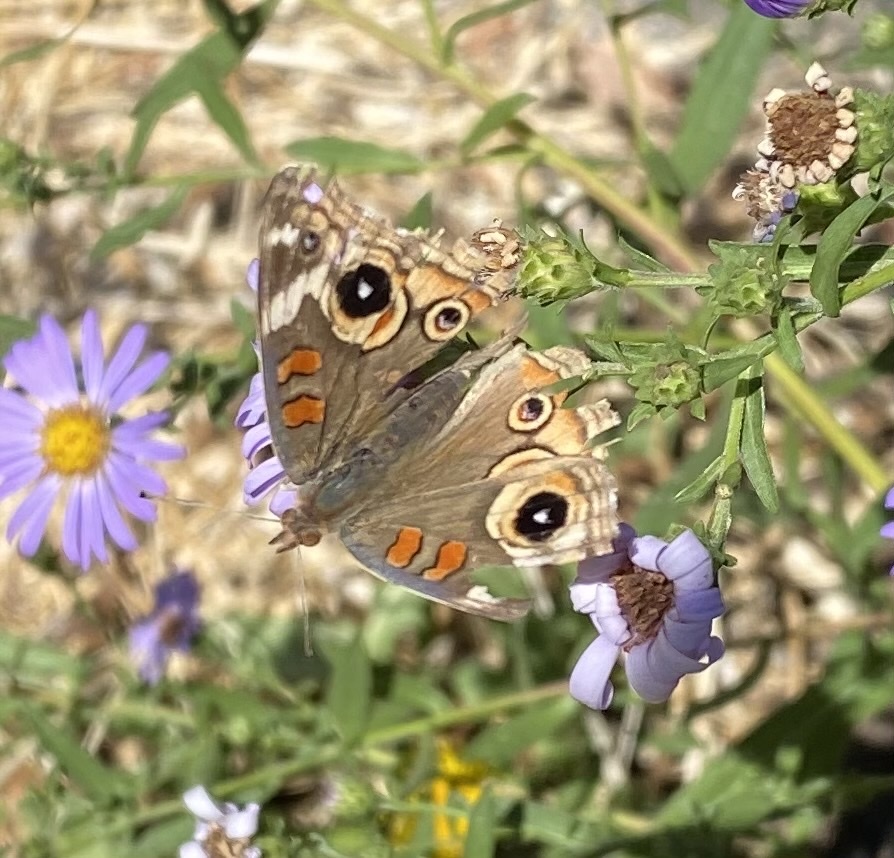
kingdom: Animalia
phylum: Arthropoda
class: Insecta
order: Lepidoptera
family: Nymphalidae
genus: Junonia
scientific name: Junonia grisea
